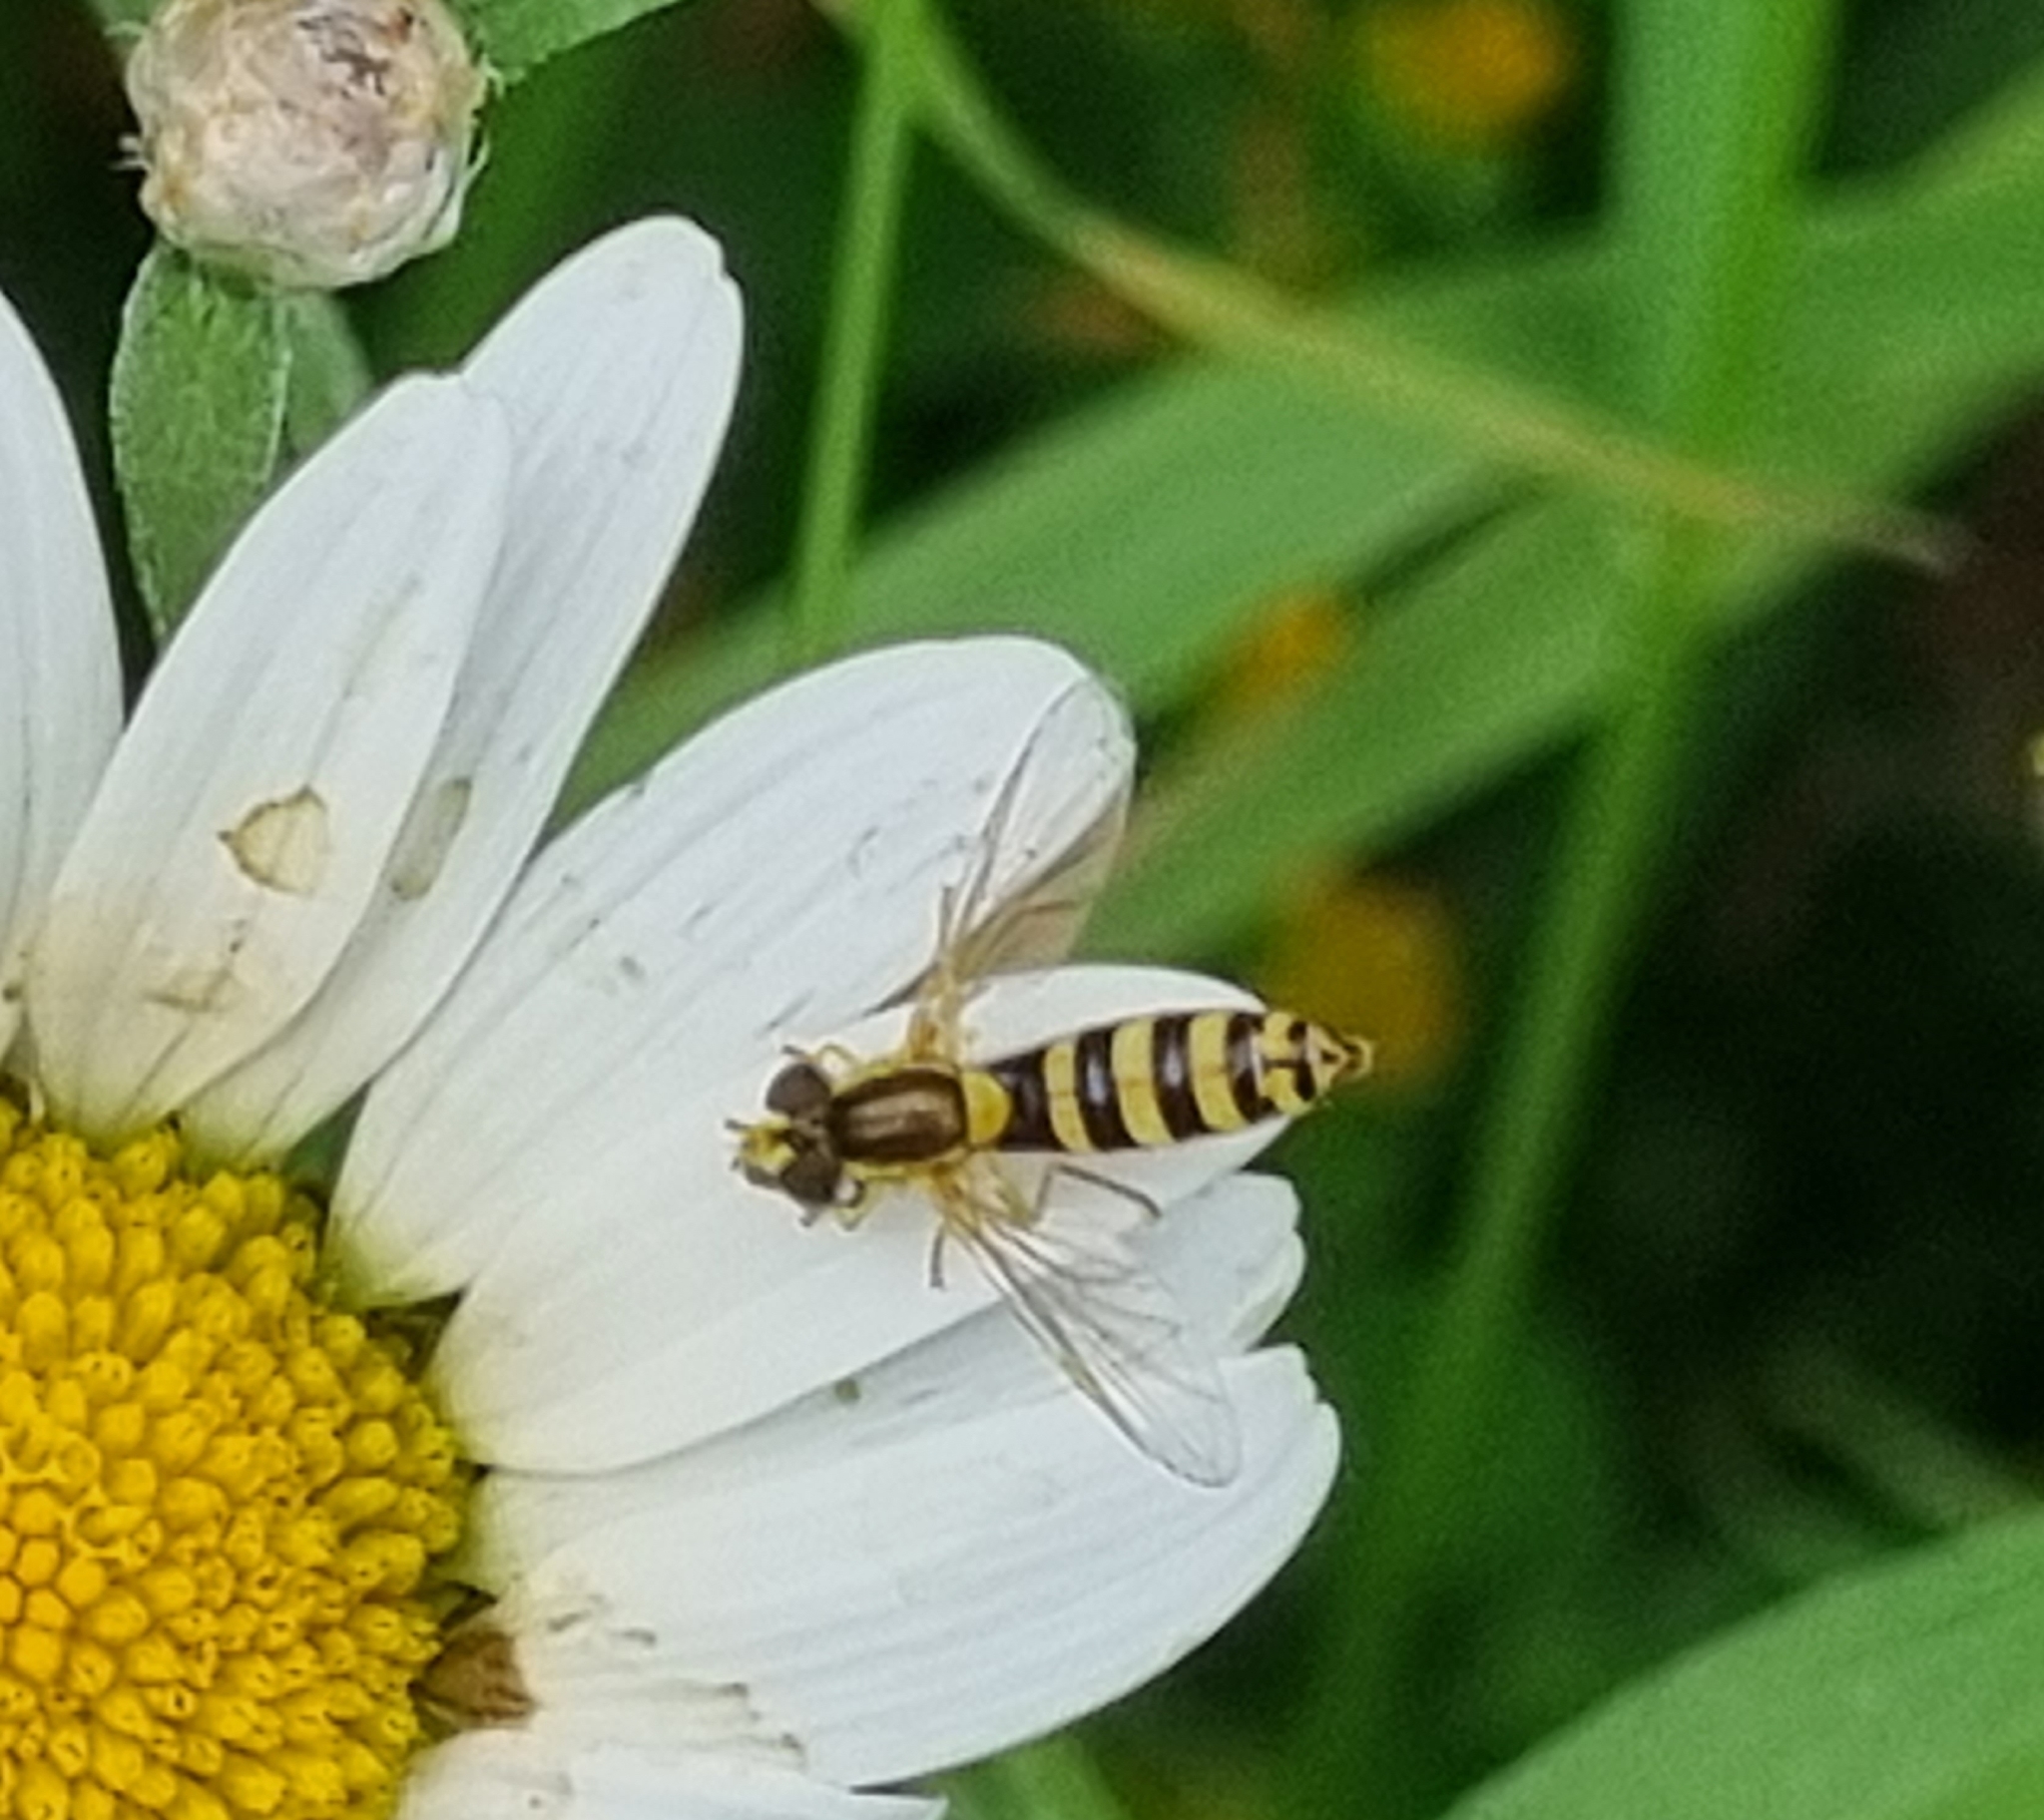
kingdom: Animalia
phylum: Arthropoda
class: Insecta
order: Diptera
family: Syrphidae
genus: Sphaerophoria
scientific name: Sphaerophoria
